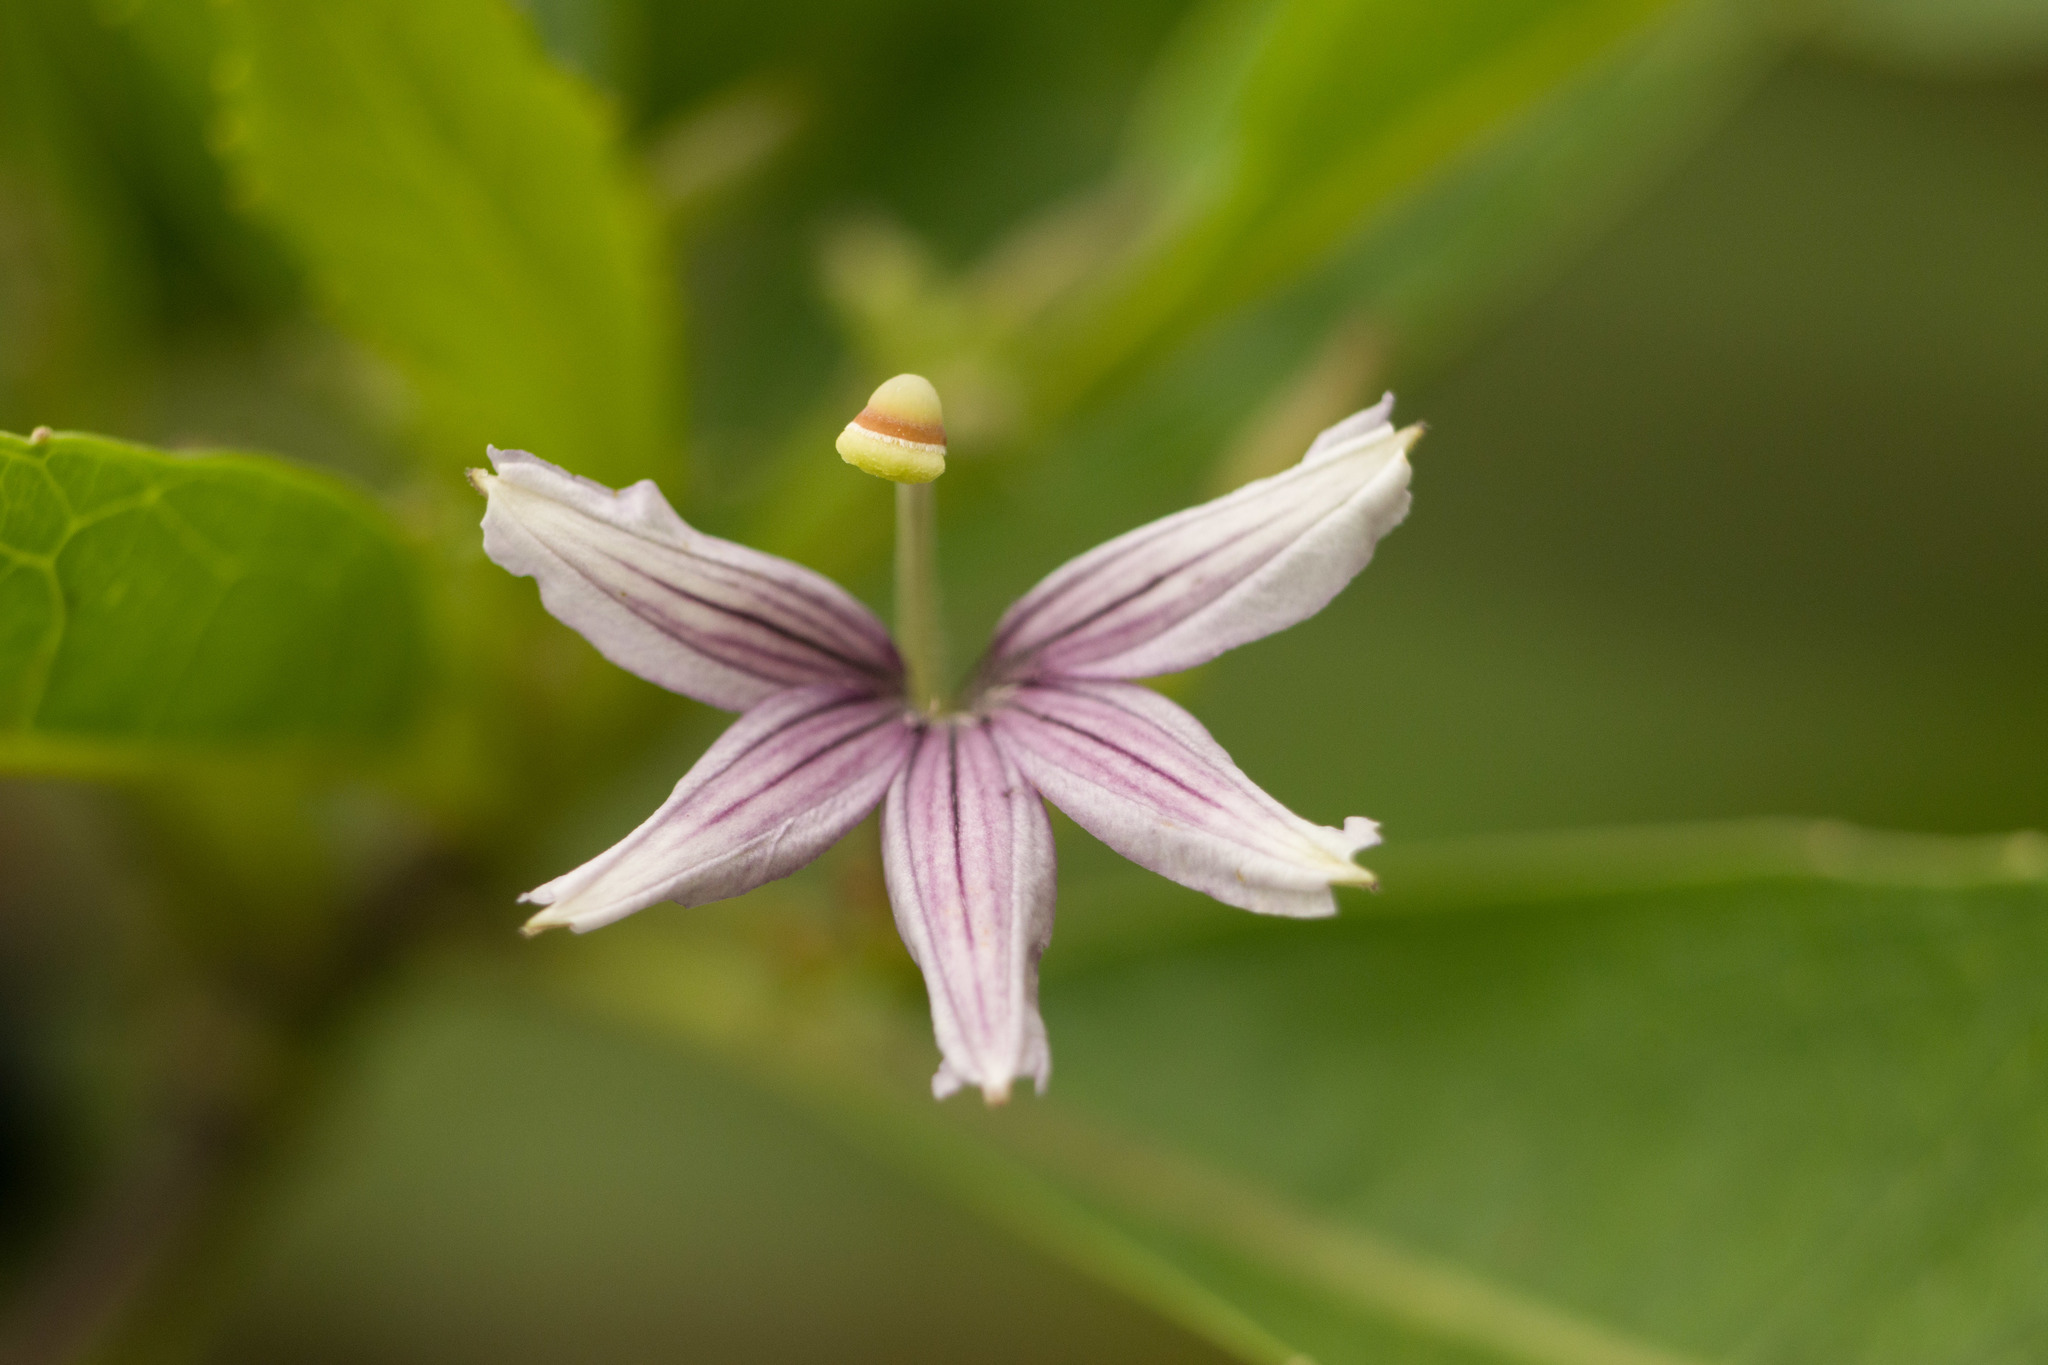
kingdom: Plantae
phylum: Tracheophyta
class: Magnoliopsida
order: Asterales
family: Goodeniaceae
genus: Scaevola
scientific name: Scaevola mollis
